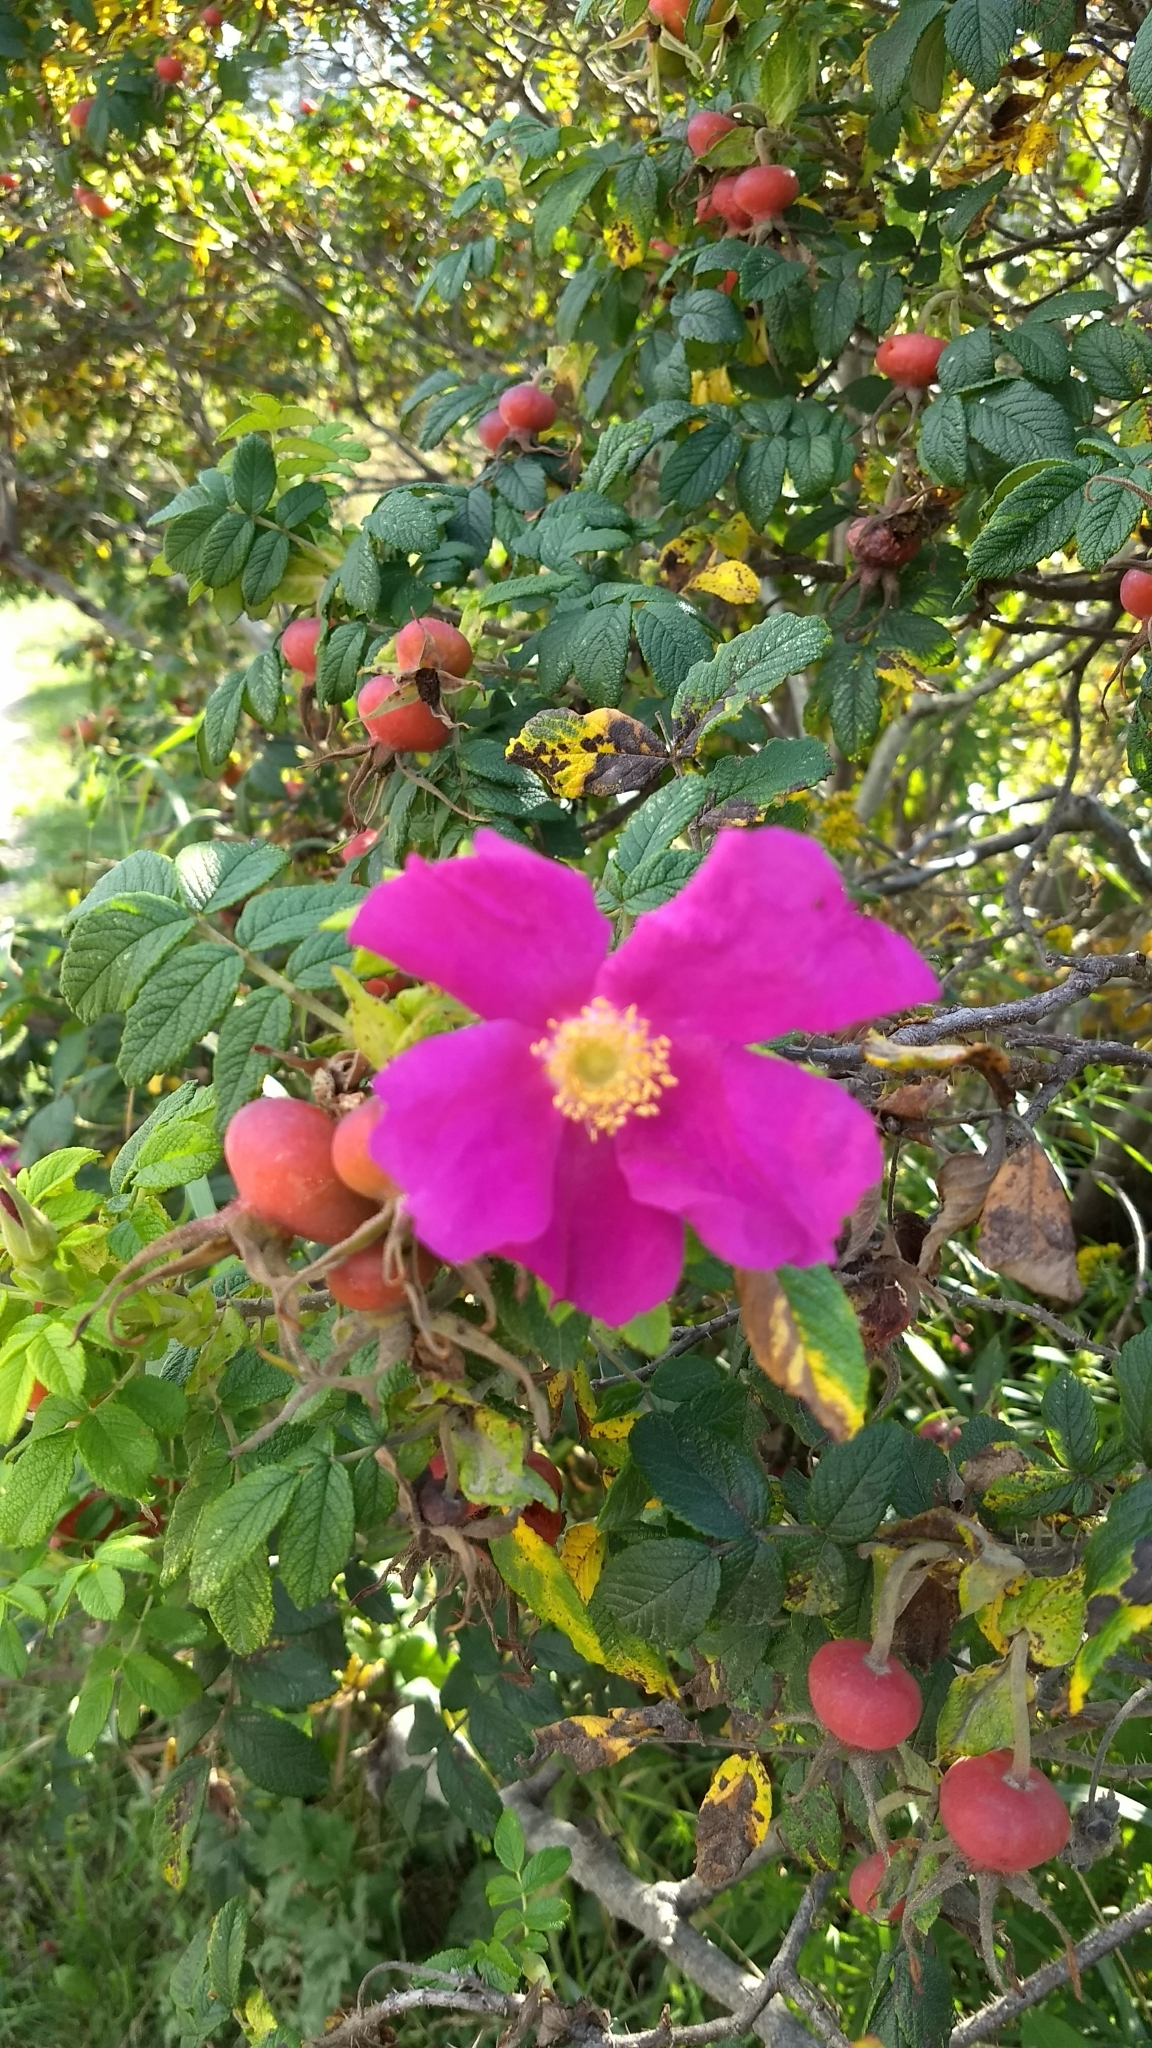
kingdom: Plantae
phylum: Tracheophyta
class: Magnoliopsida
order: Rosales
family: Rosaceae
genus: Rosa
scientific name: Rosa rugosa
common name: Japanese rose
